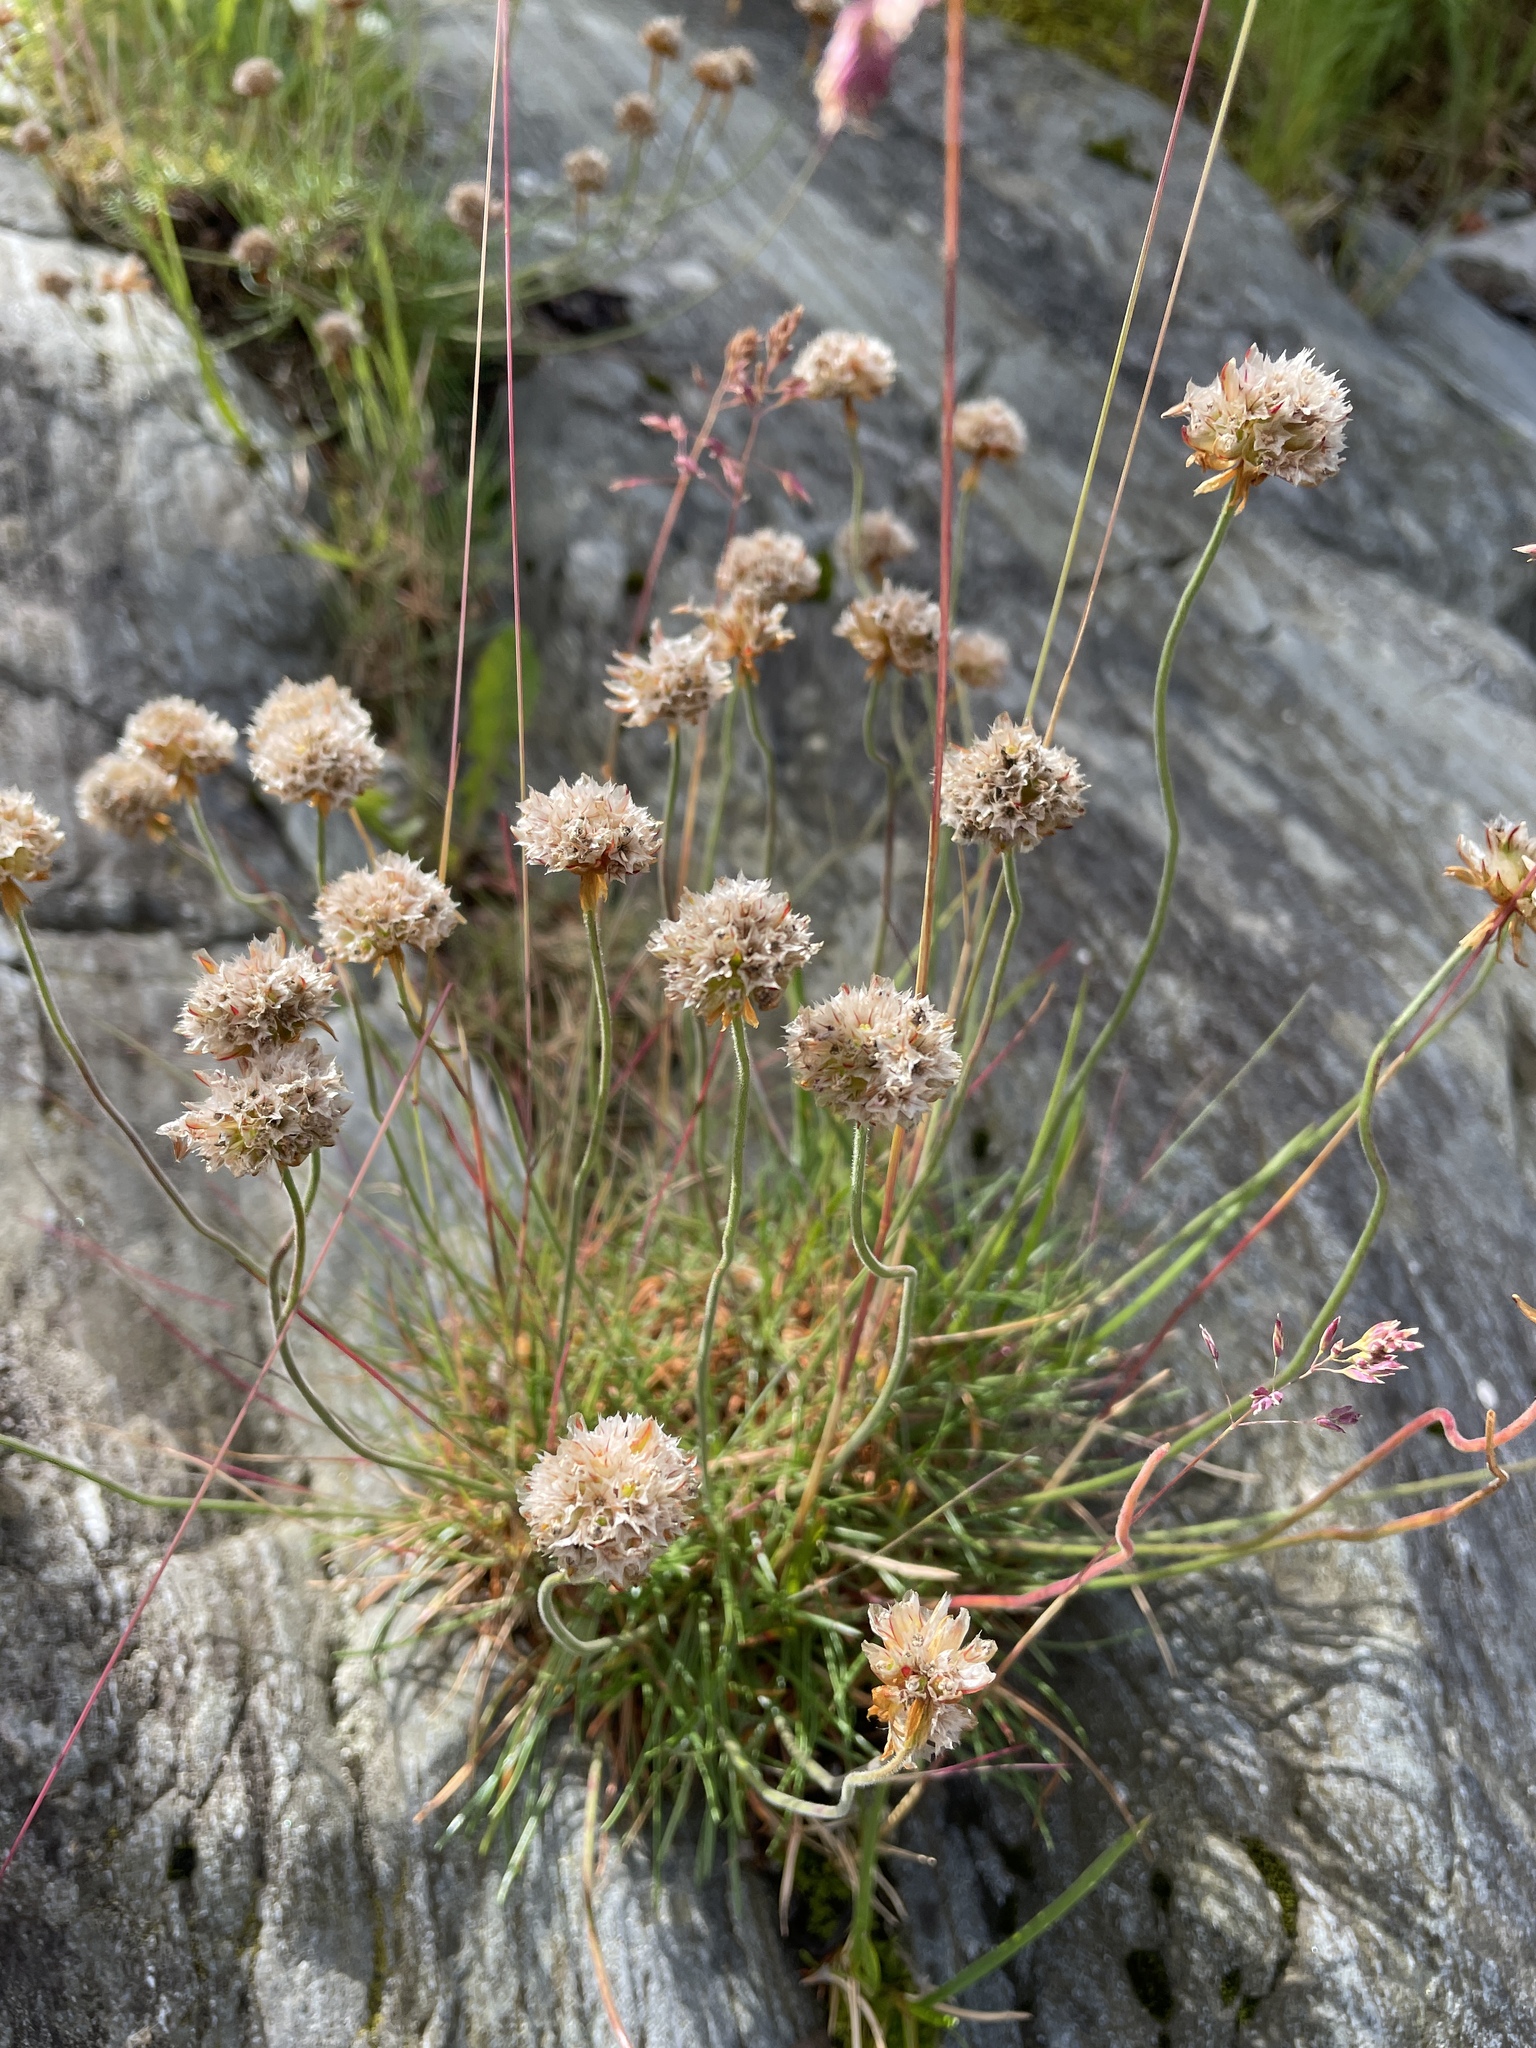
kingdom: Plantae
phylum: Tracheophyta
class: Magnoliopsida
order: Caryophyllales
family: Plumbaginaceae
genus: Armeria
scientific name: Armeria maritima
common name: Thrift
